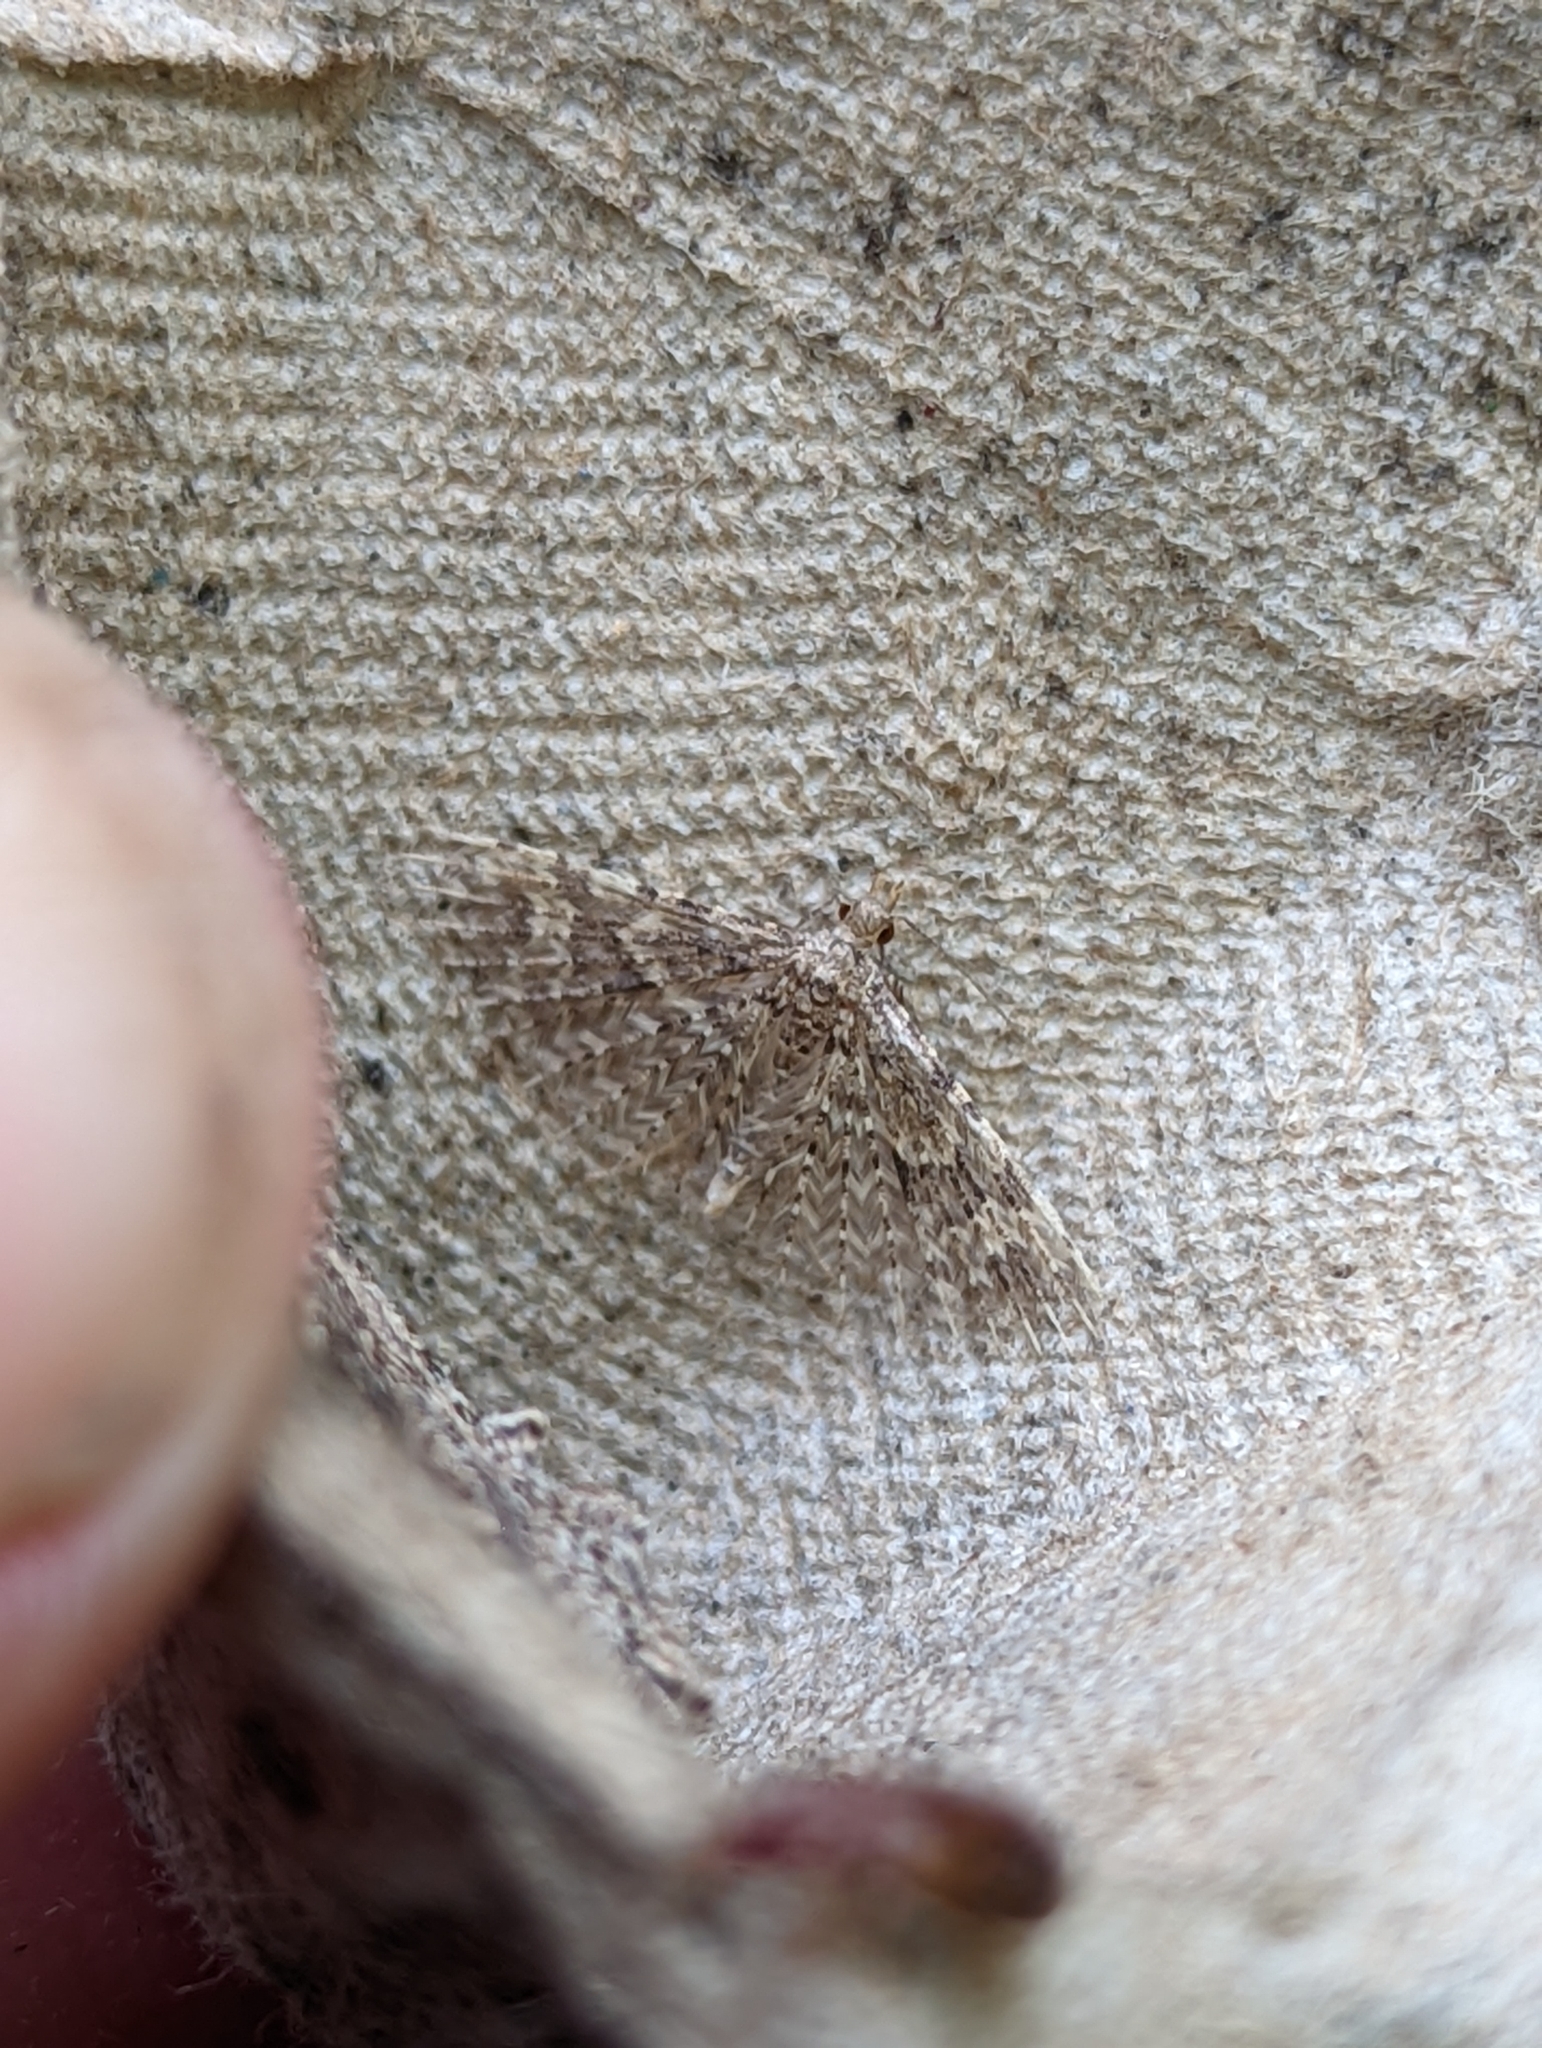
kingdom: Animalia
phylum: Arthropoda
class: Insecta
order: Lepidoptera
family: Alucitidae
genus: Alucita
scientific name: Alucita hexadactyla
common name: Twenty-plume moth
